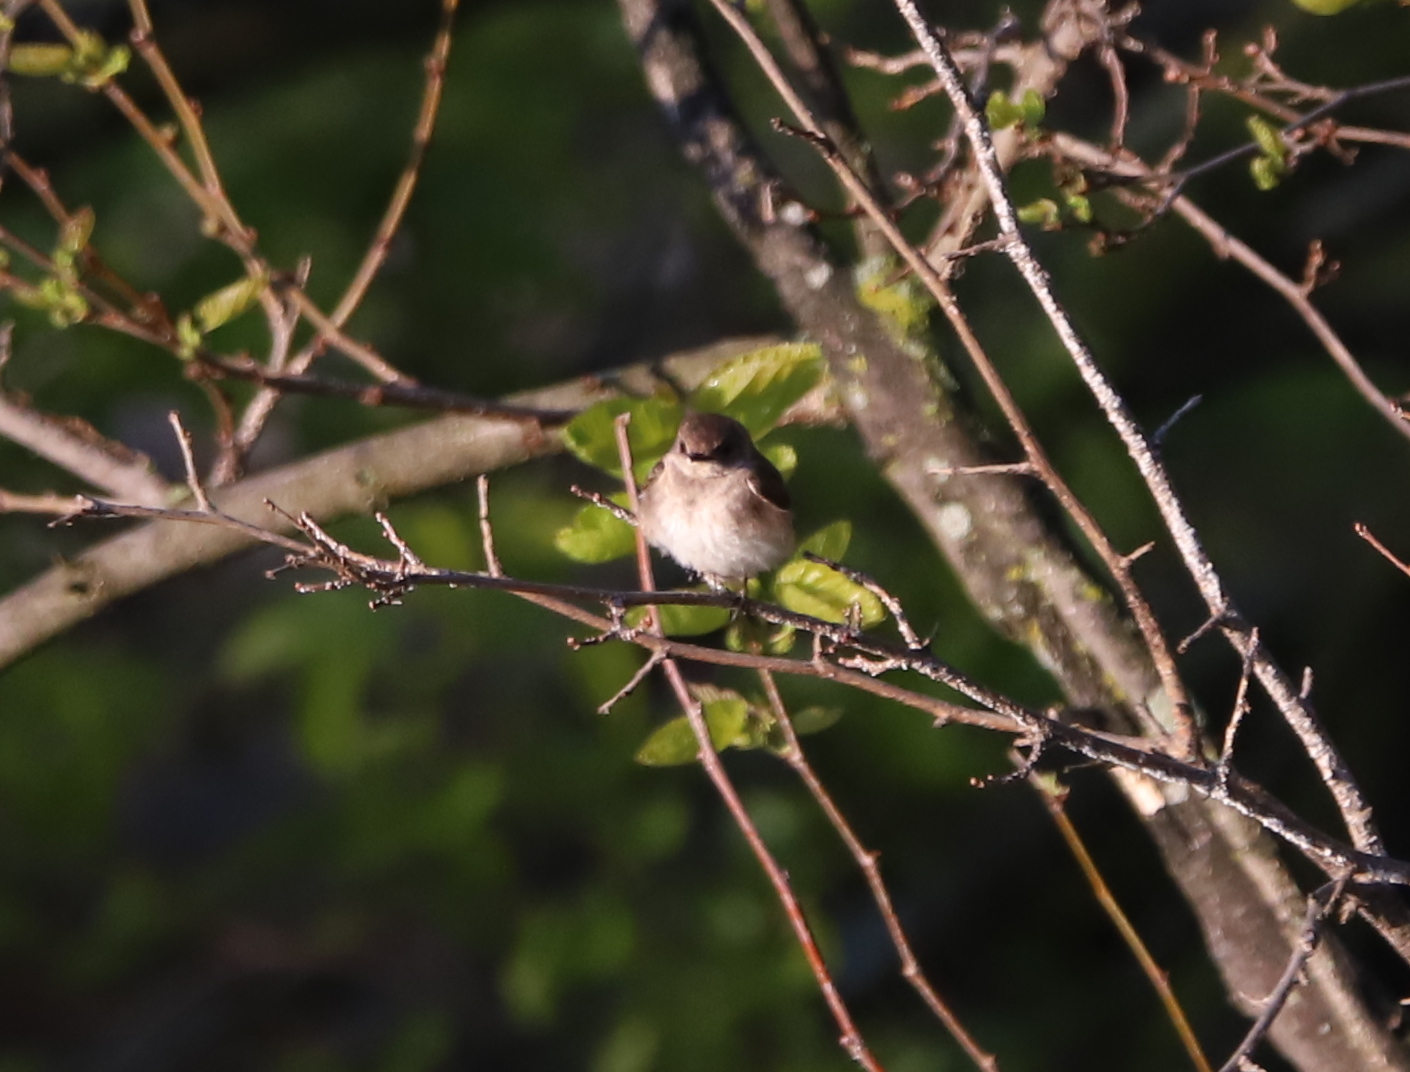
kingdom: Animalia
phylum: Chordata
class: Aves
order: Passeriformes
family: Hirundinidae
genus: Stelgidopteryx
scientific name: Stelgidopteryx serripennis
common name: Northern rough-winged swallow
